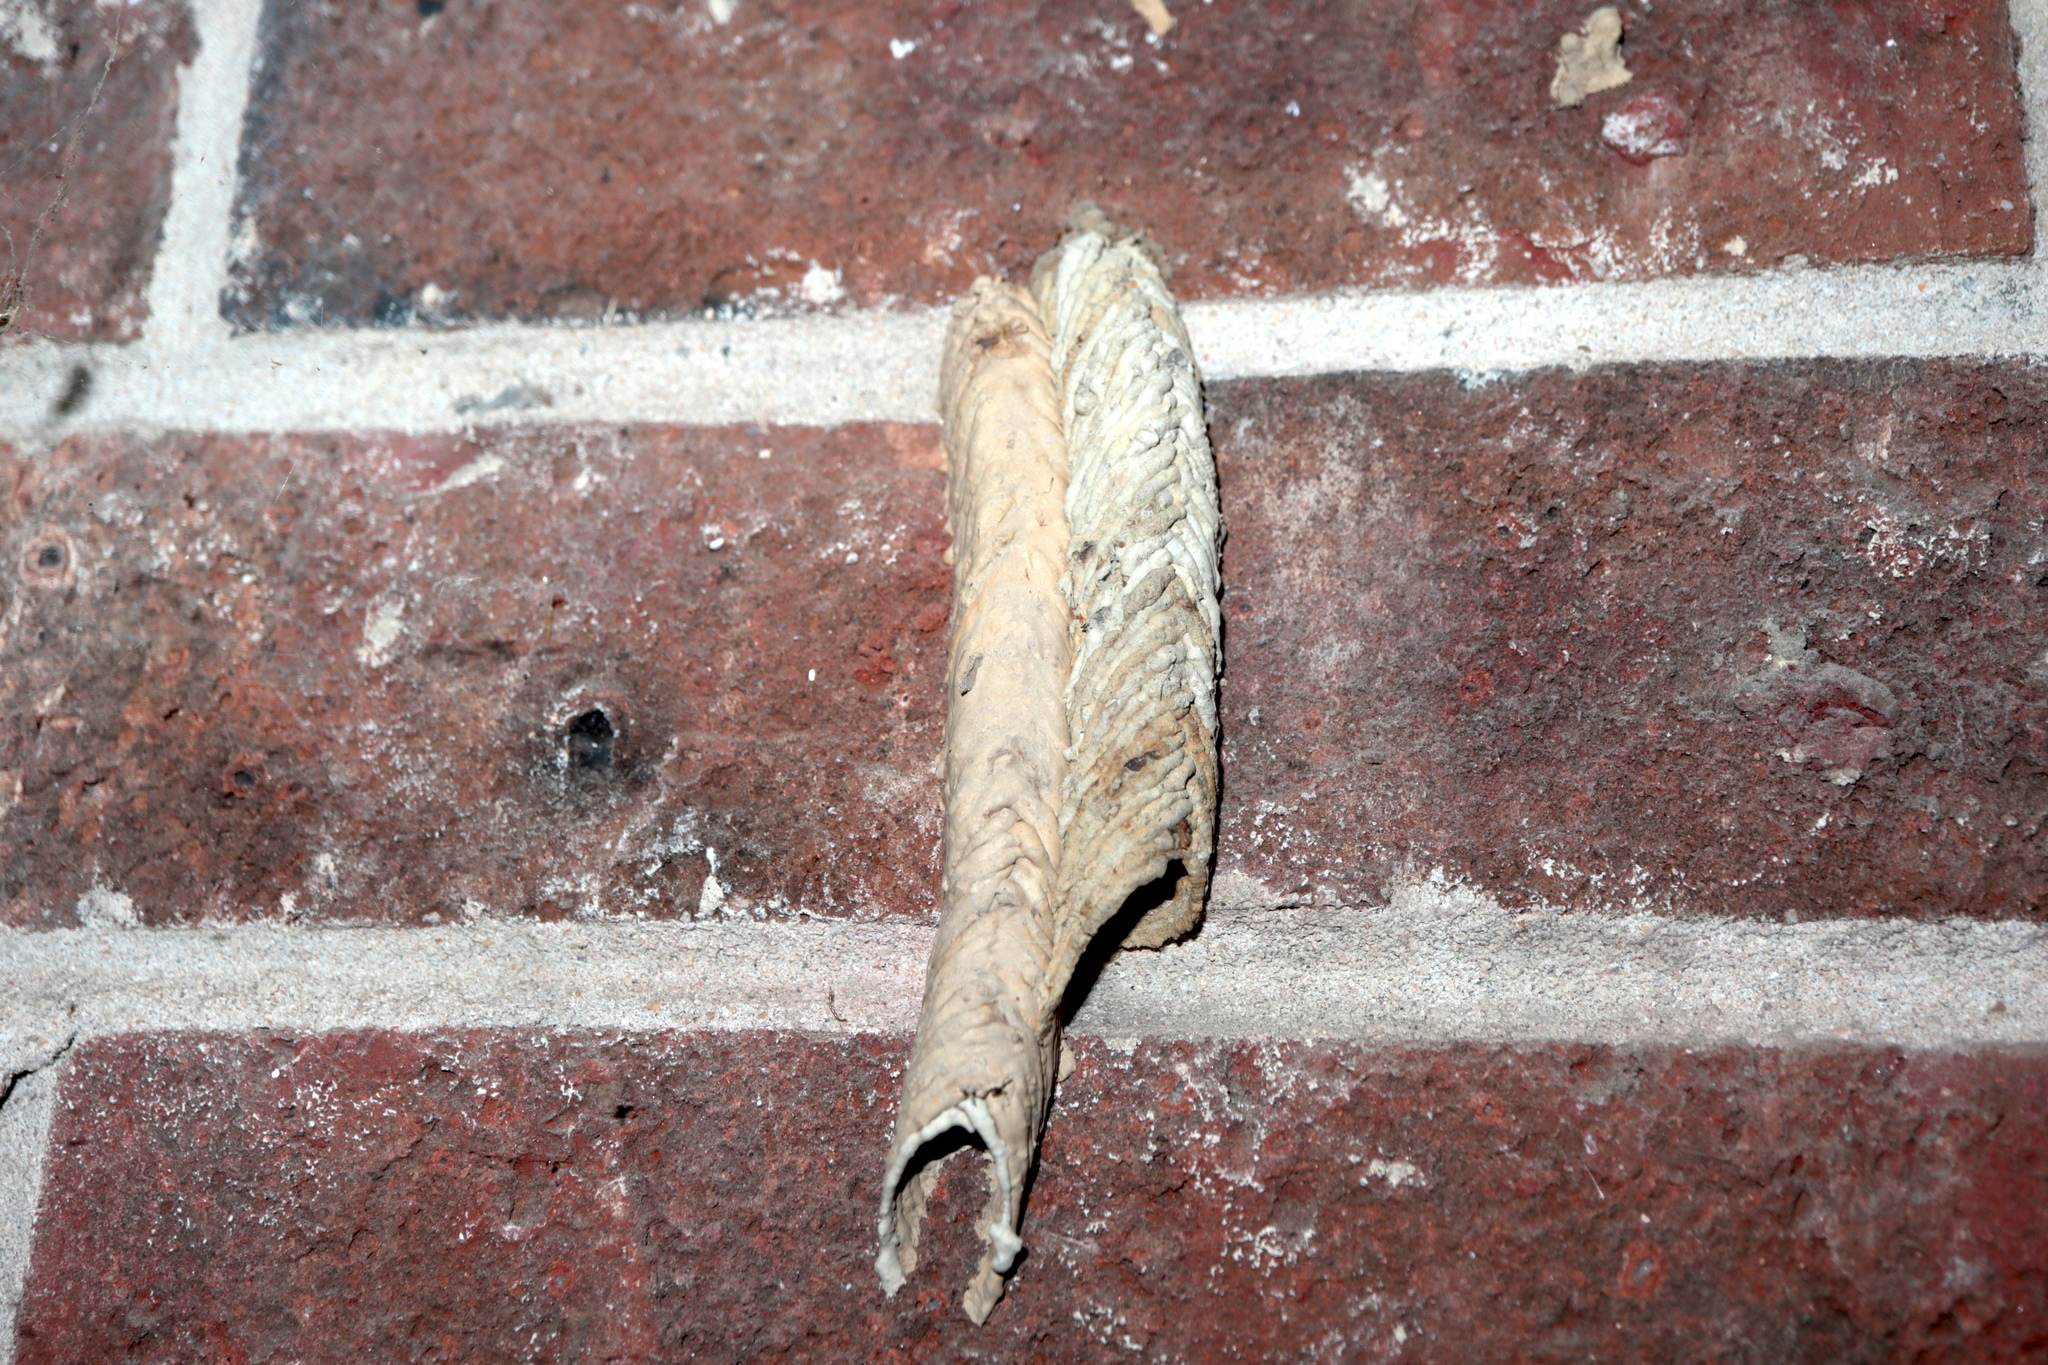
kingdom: Animalia
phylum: Arthropoda
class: Insecta
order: Hymenoptera
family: Crabronidae
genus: Trypoxylon
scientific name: Trypoxylon politum
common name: Organ-pipe mud-dauber wasp
